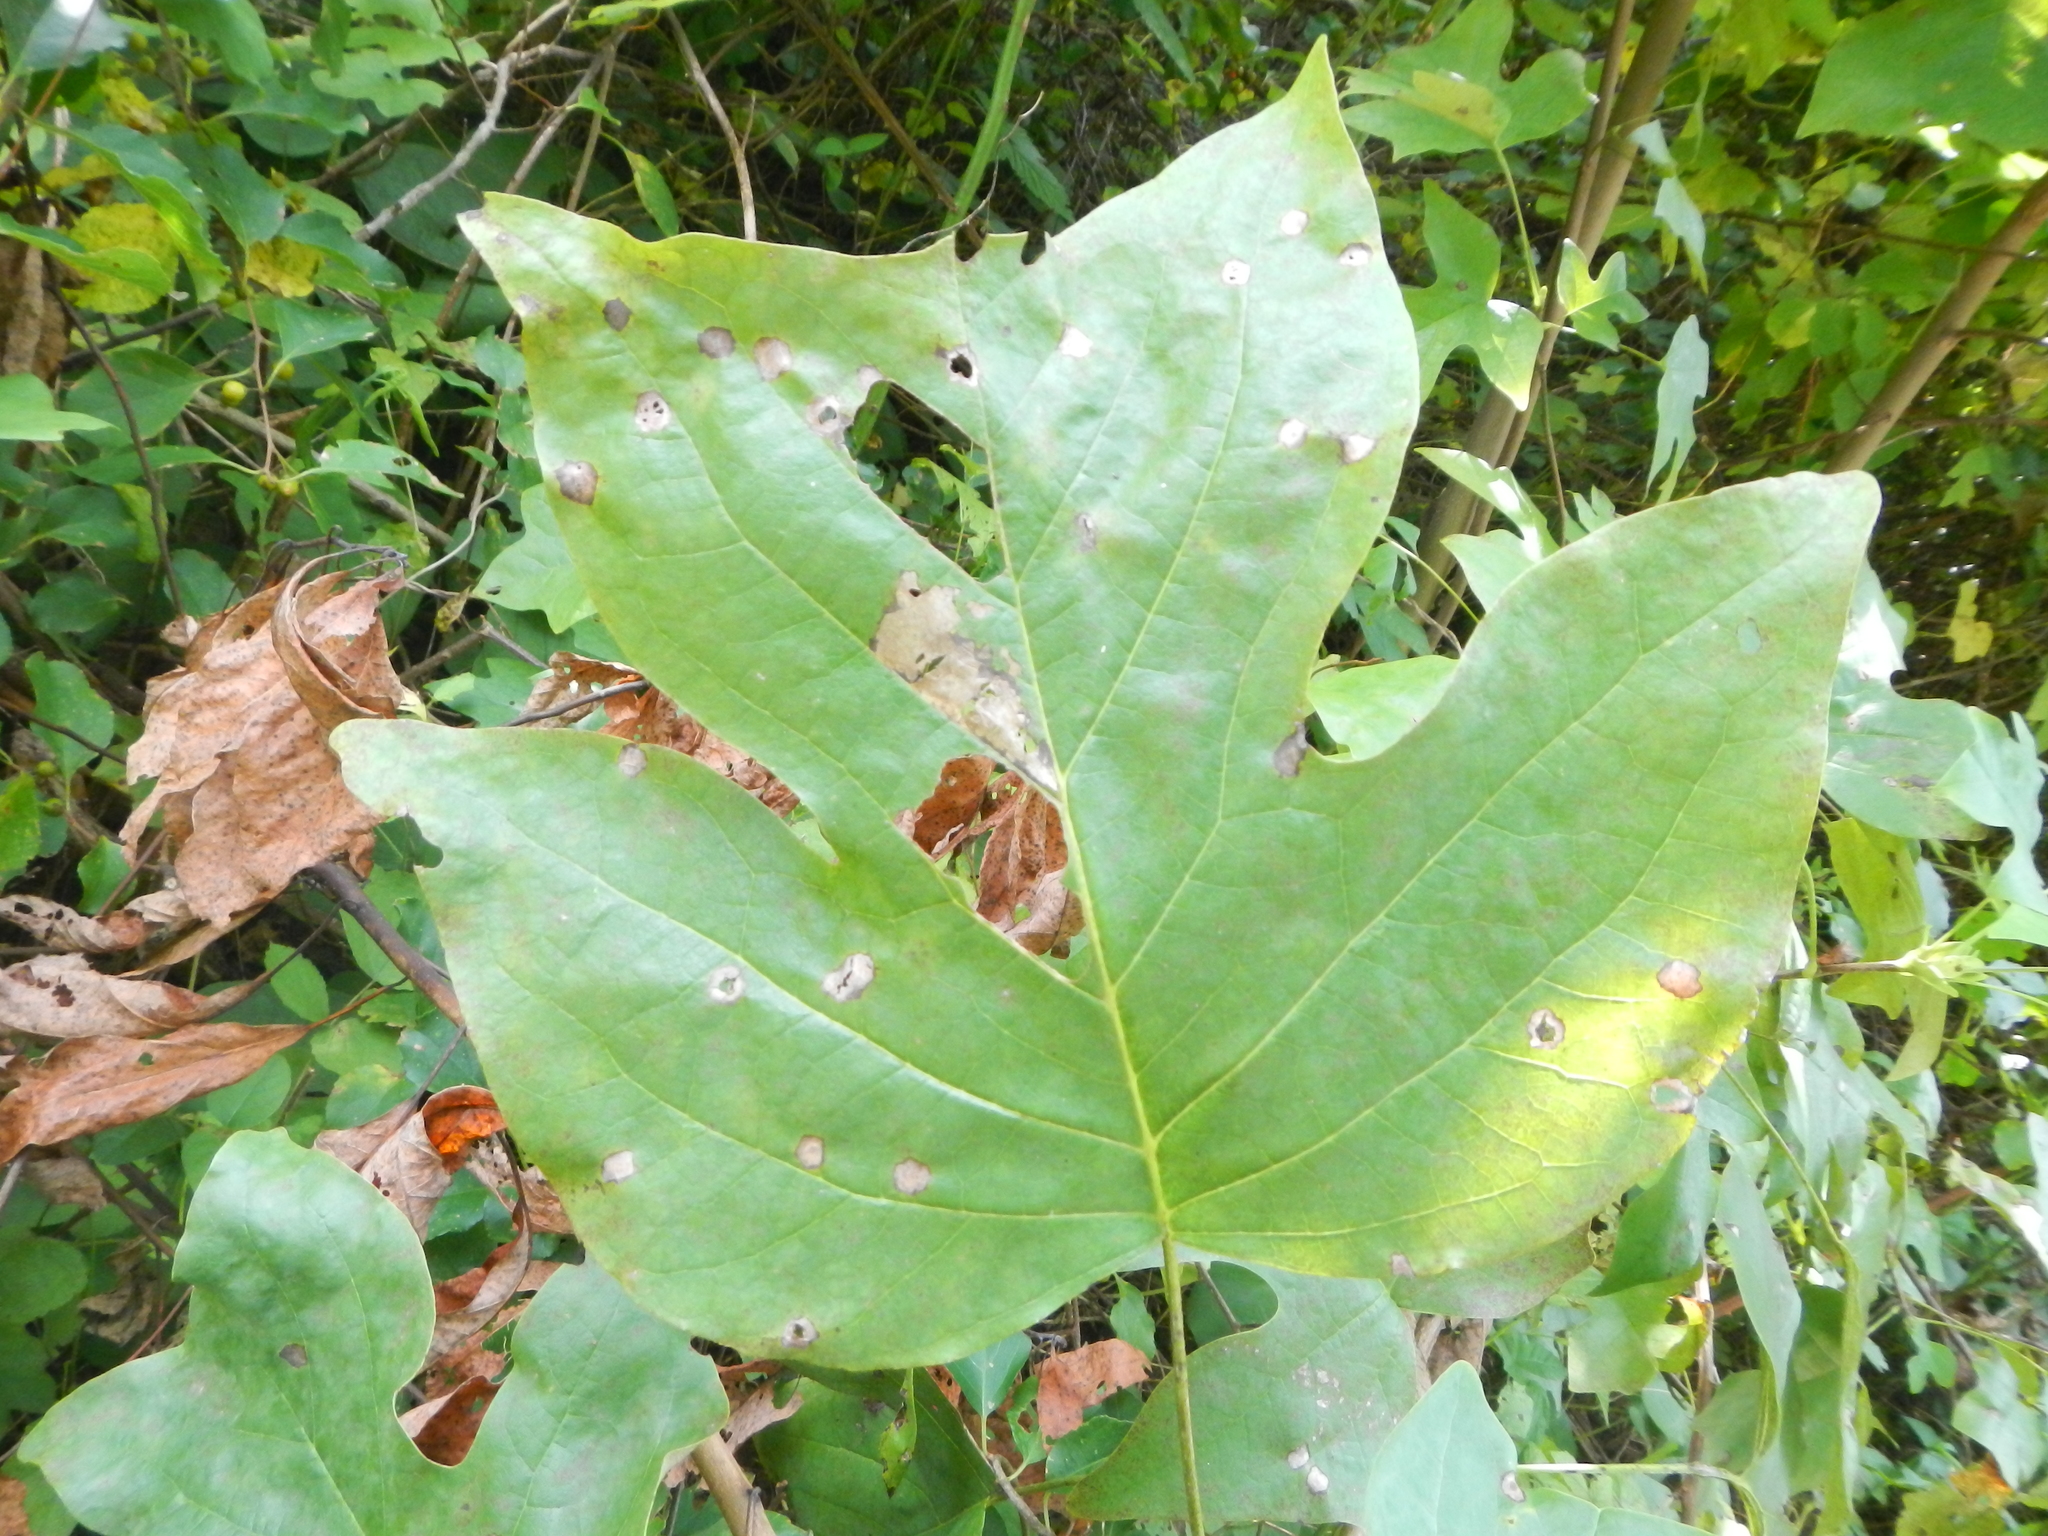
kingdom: Plantae
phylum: Tracheophyta
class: Magnoliopsida
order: Magnoliales
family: Magnoliaceae
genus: Liriodendron
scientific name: Liriodendron tulipifera
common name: Tulip tree
